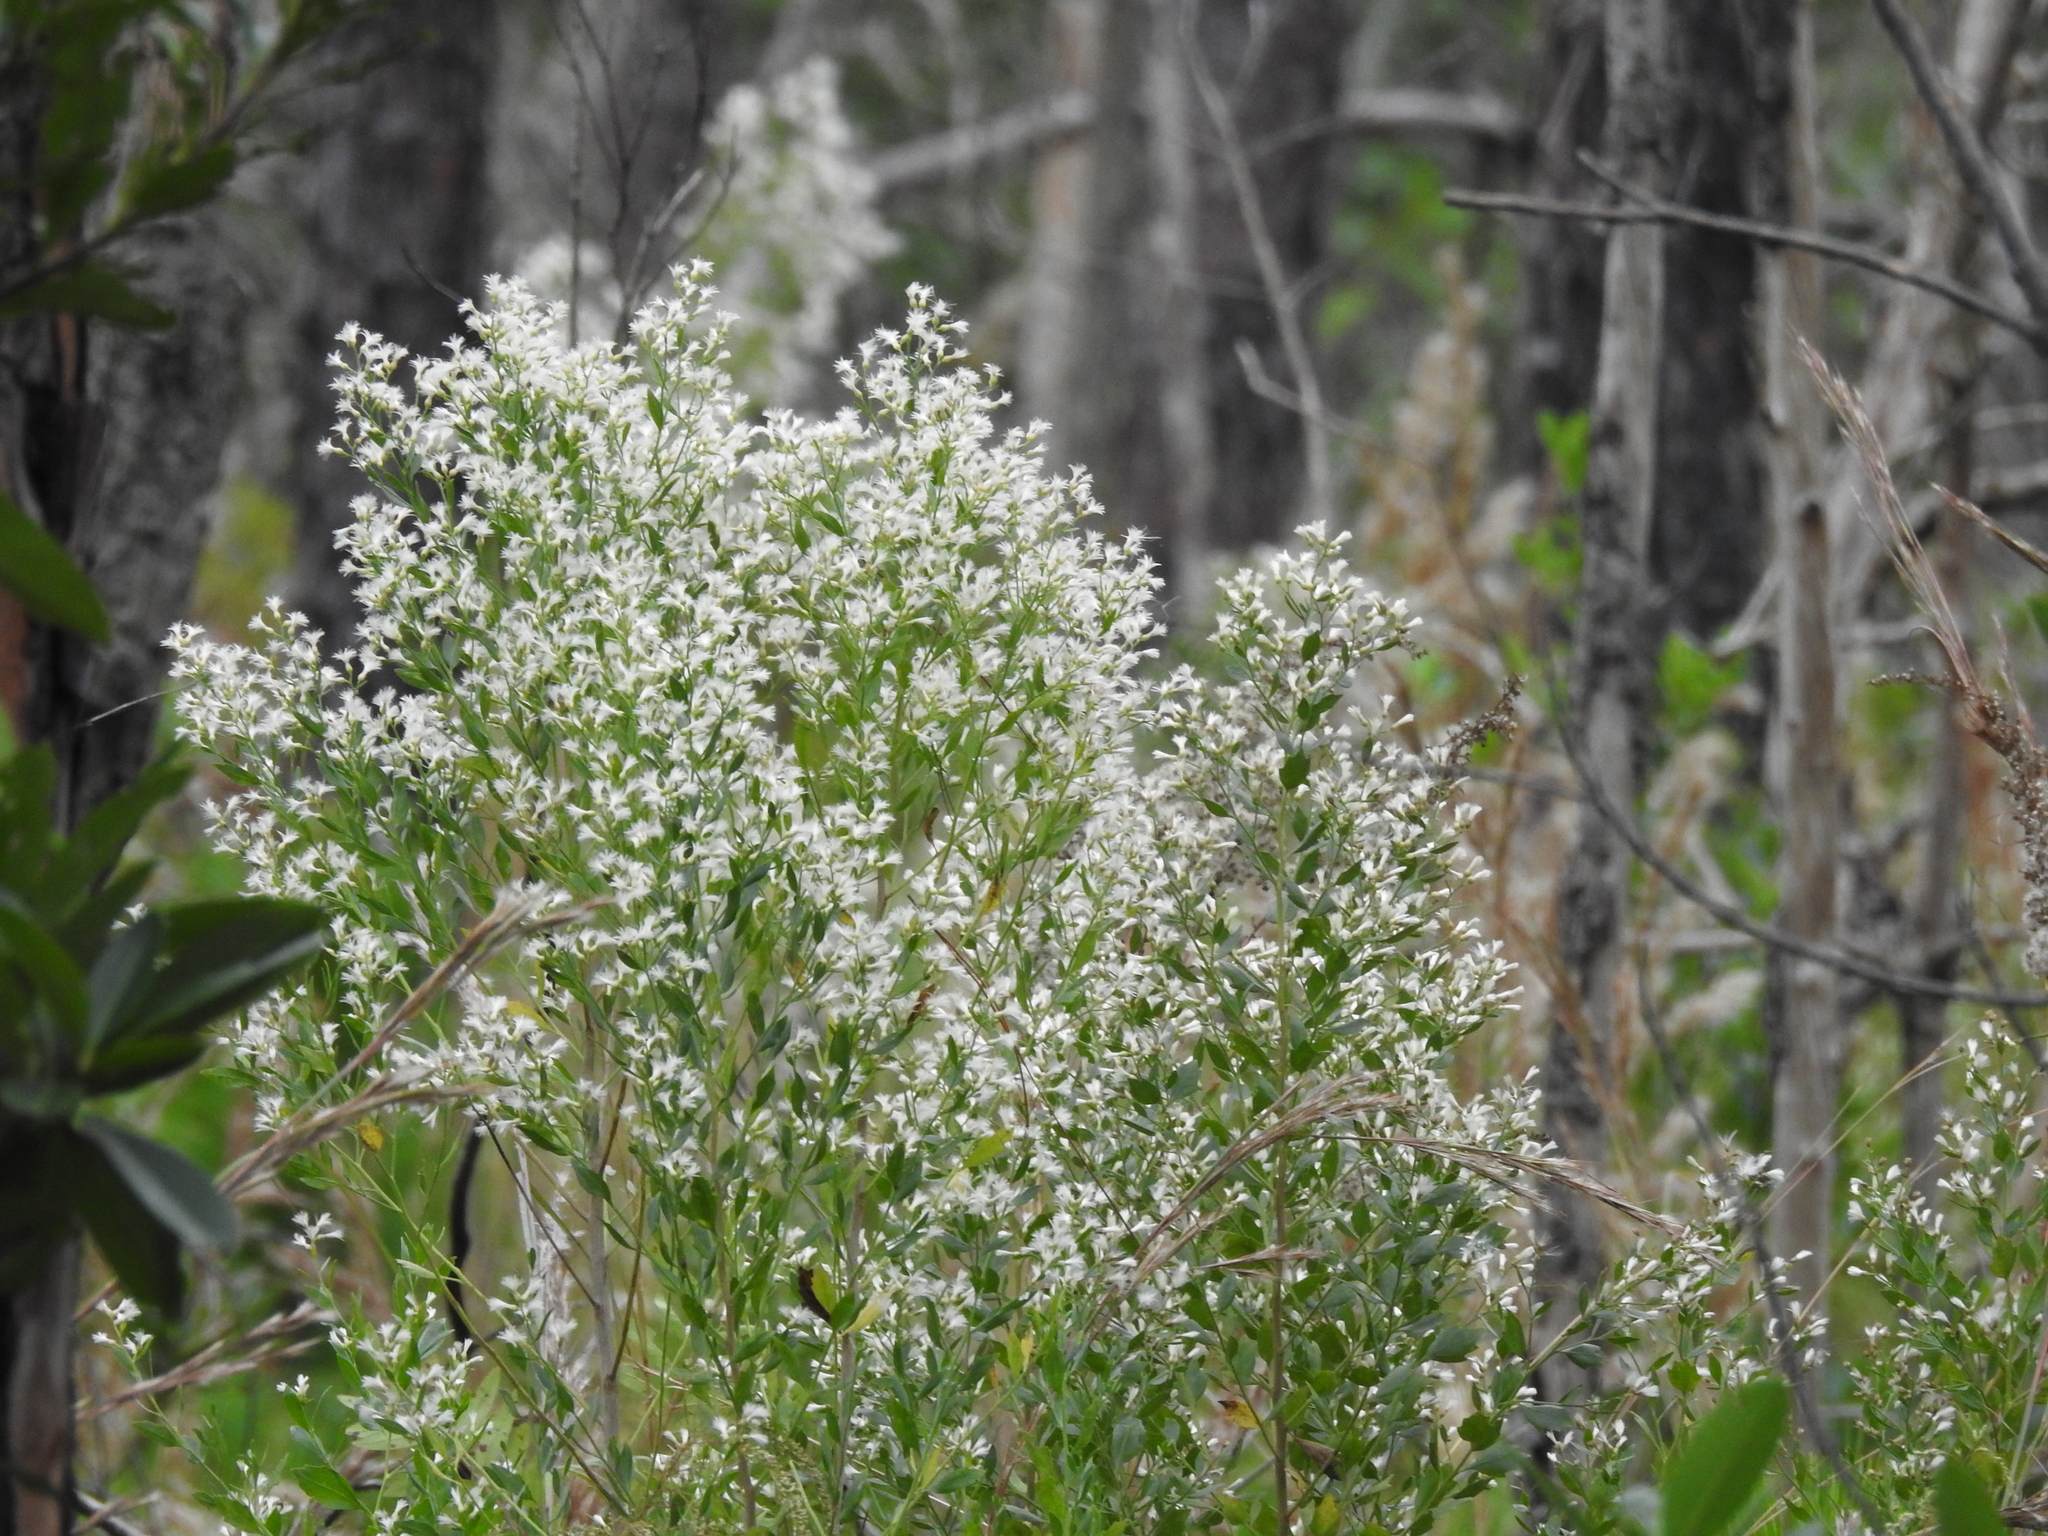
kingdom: Plantae
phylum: Tracheophyta
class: Magnoliopsida
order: Asterales
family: Asteraceae
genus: Baccharis
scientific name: Baccharis halimifolia
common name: Eastern baccharis
